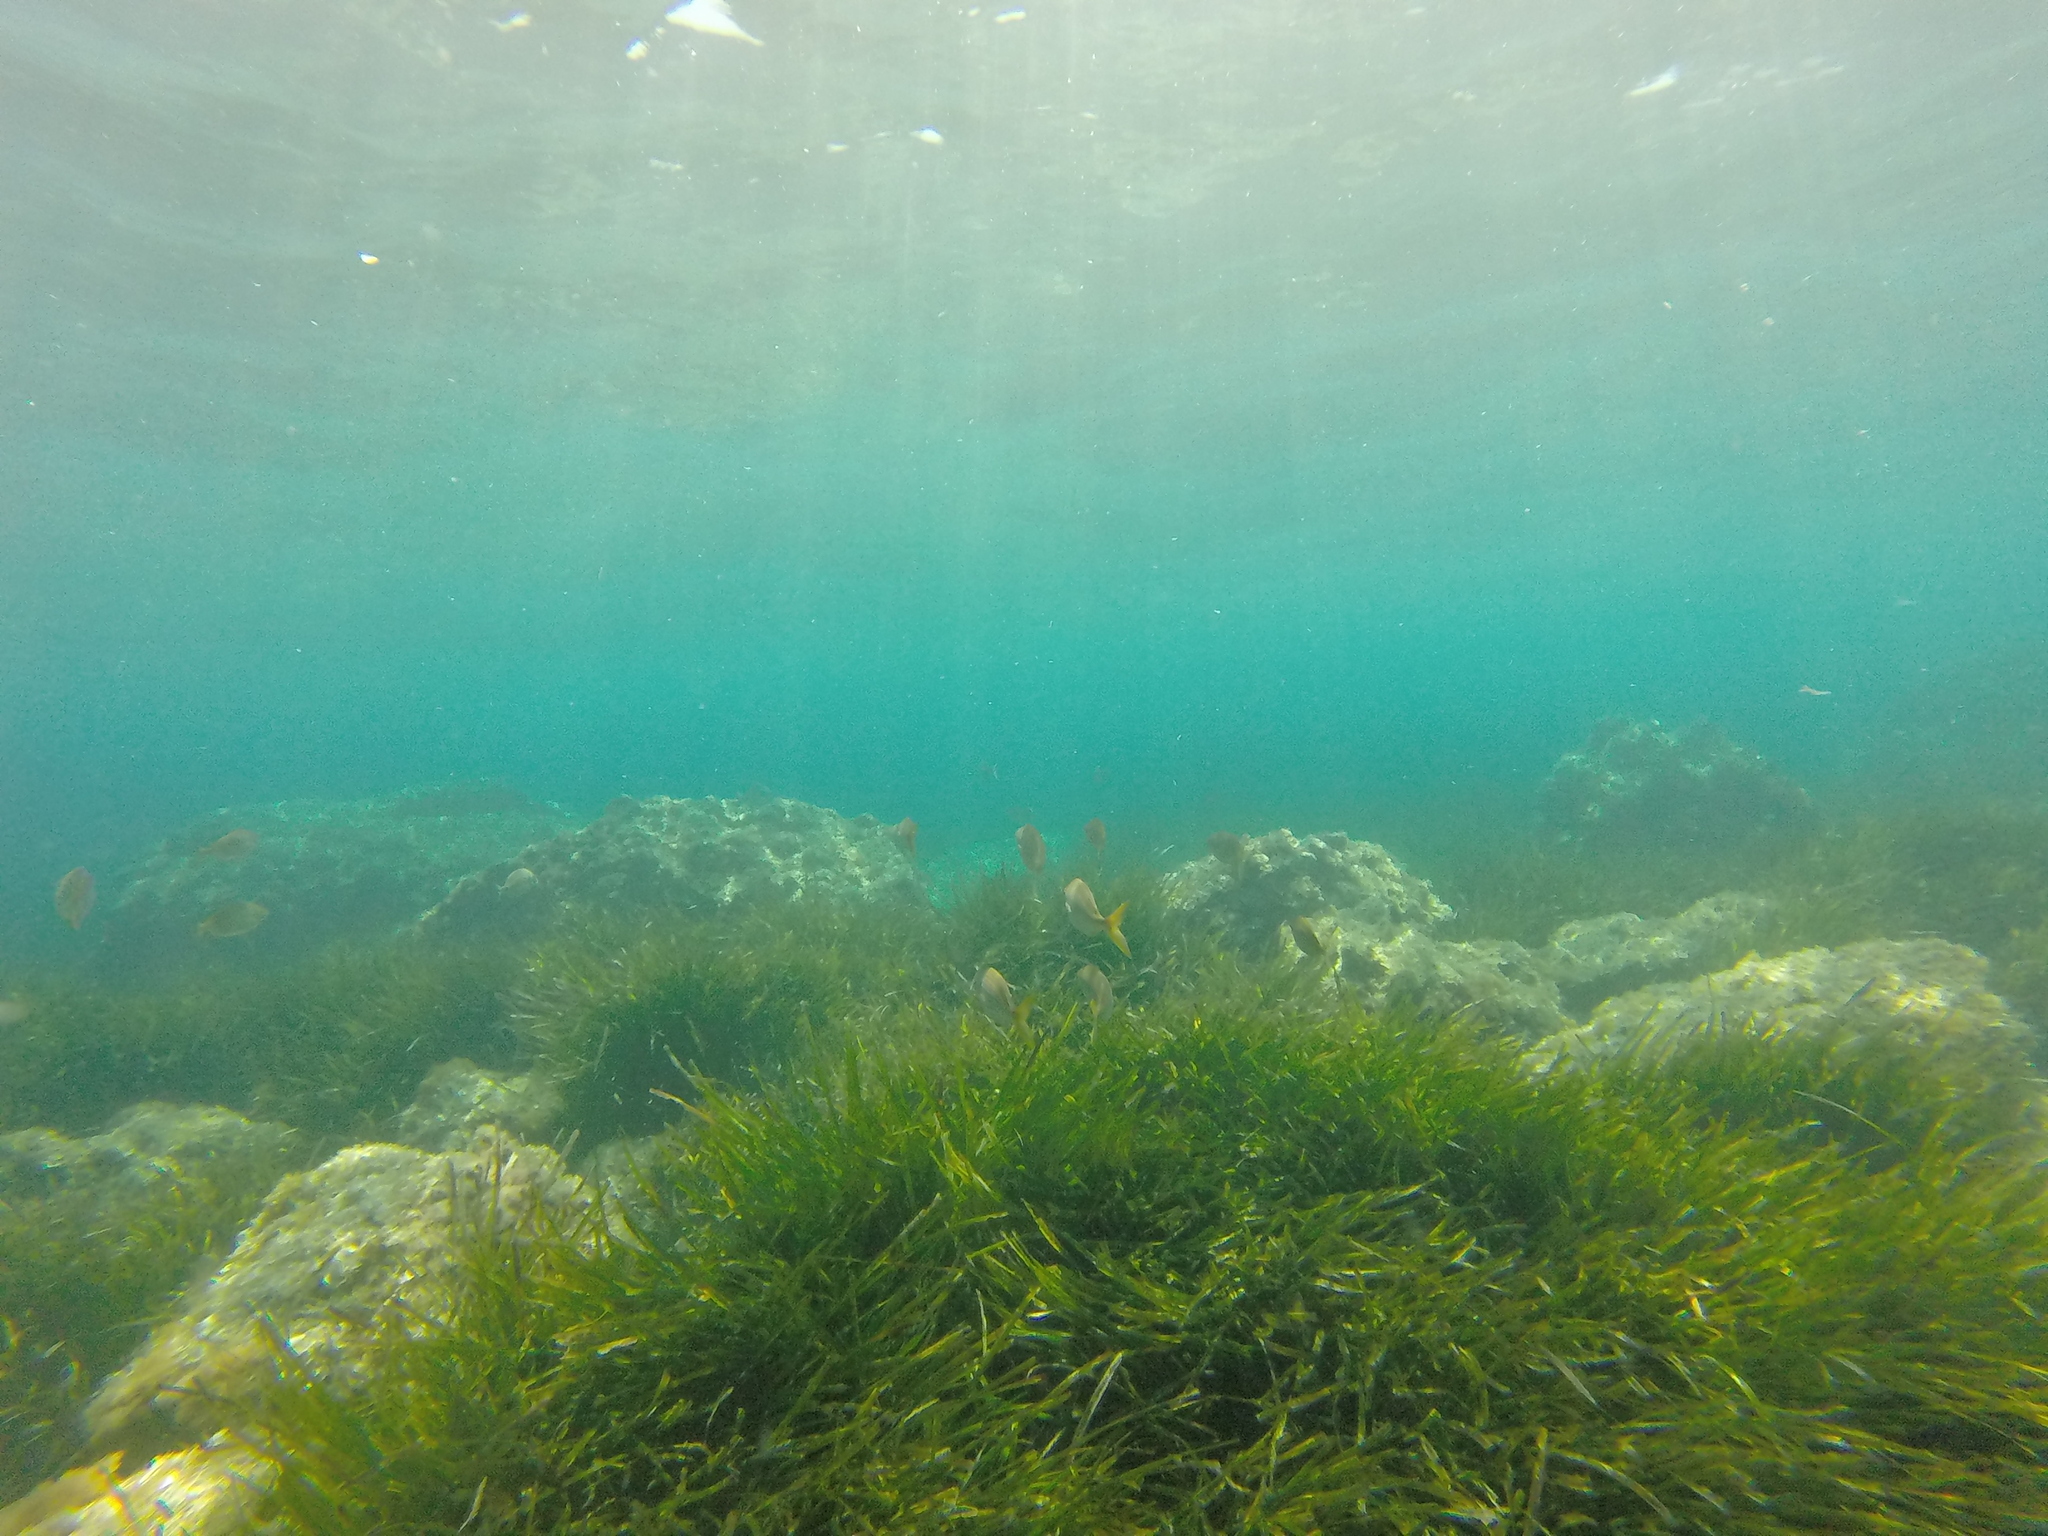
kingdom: Animalia
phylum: Chordata
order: Perciformes
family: Sparidae
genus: Sarpa
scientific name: Sarpa salpa
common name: Salema
